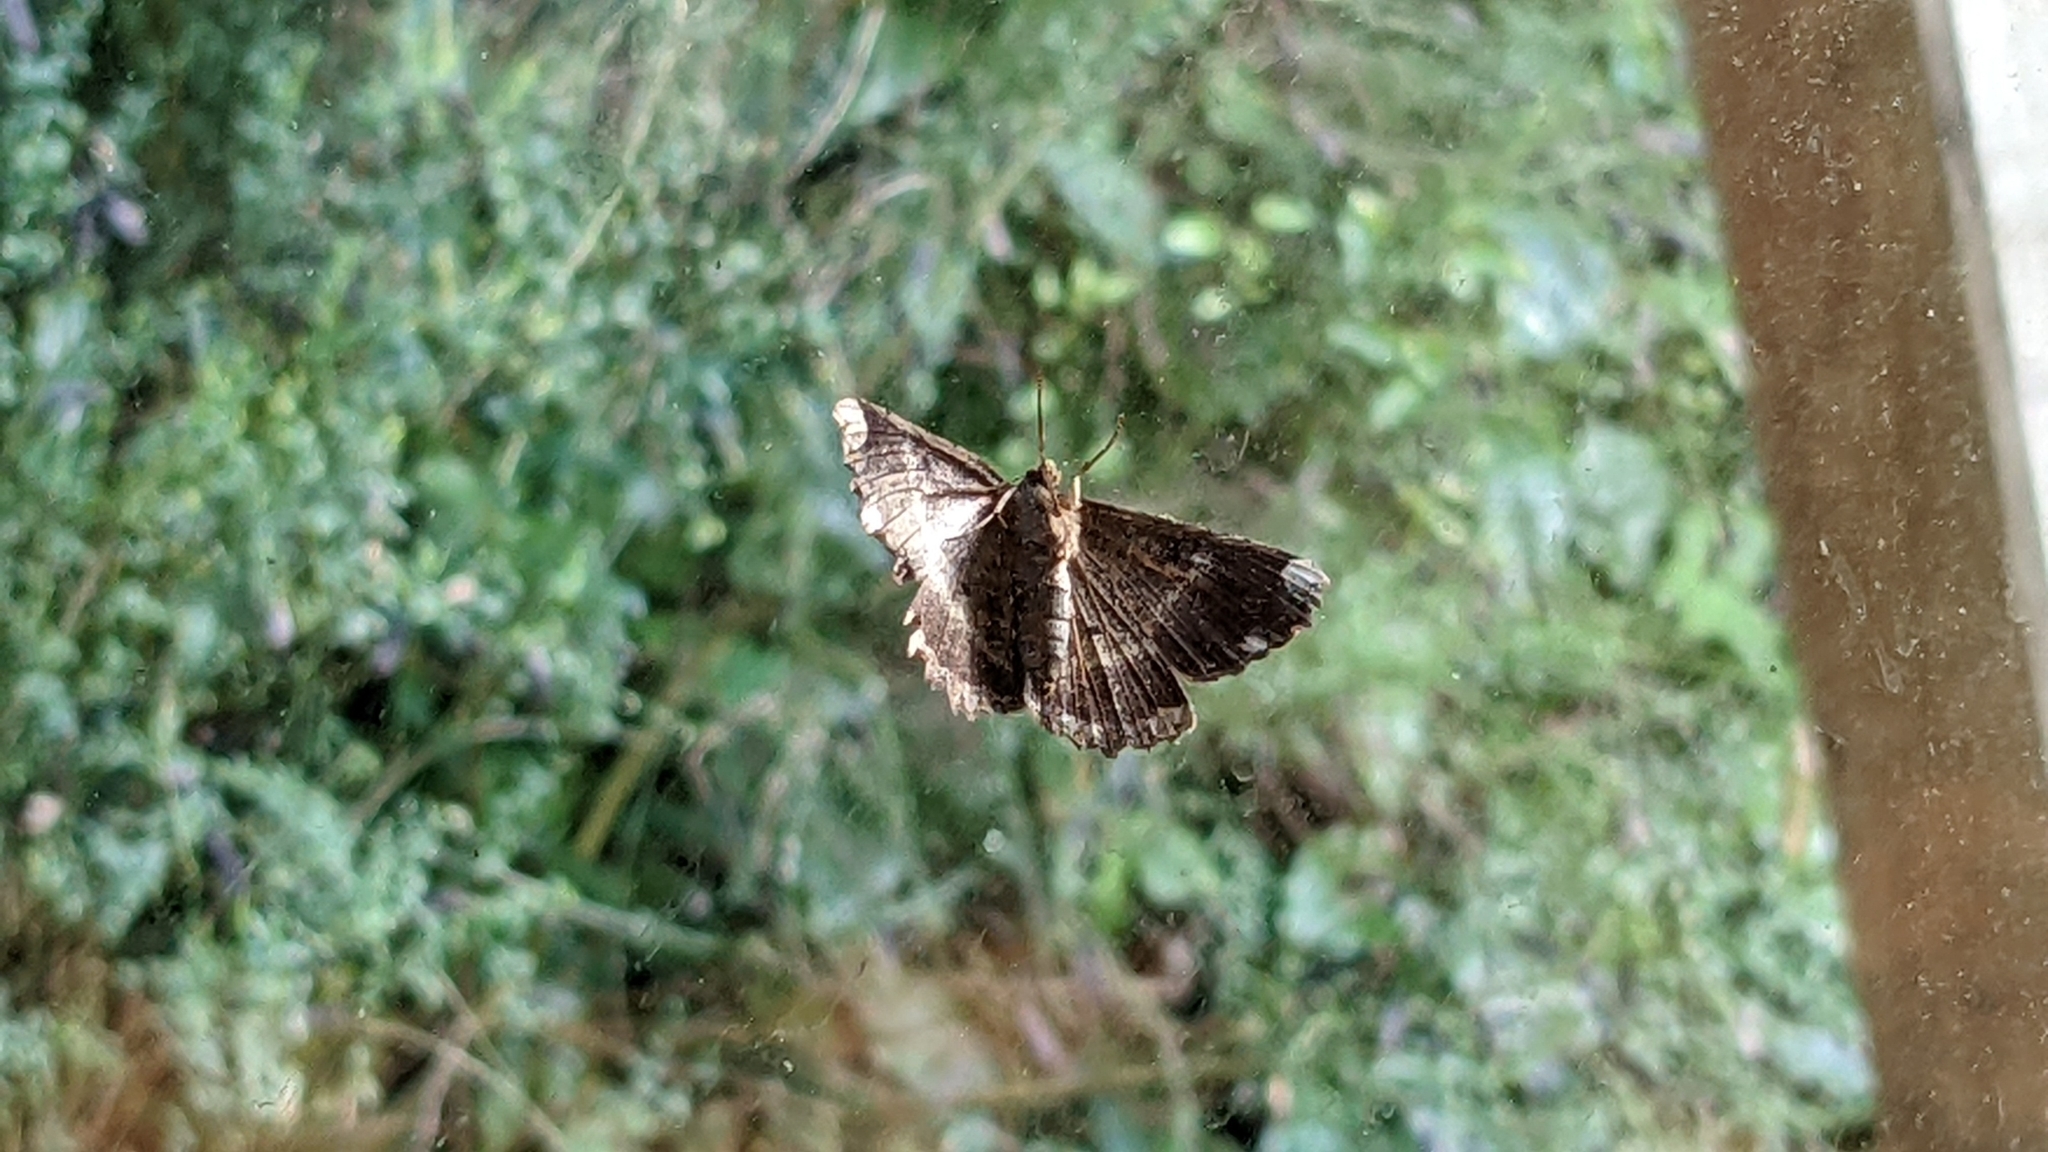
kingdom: Animalia
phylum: Arthropoda
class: Insecta
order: Lepidoptera
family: Geometridae
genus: Gellonia
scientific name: Gellonia dejectaria
